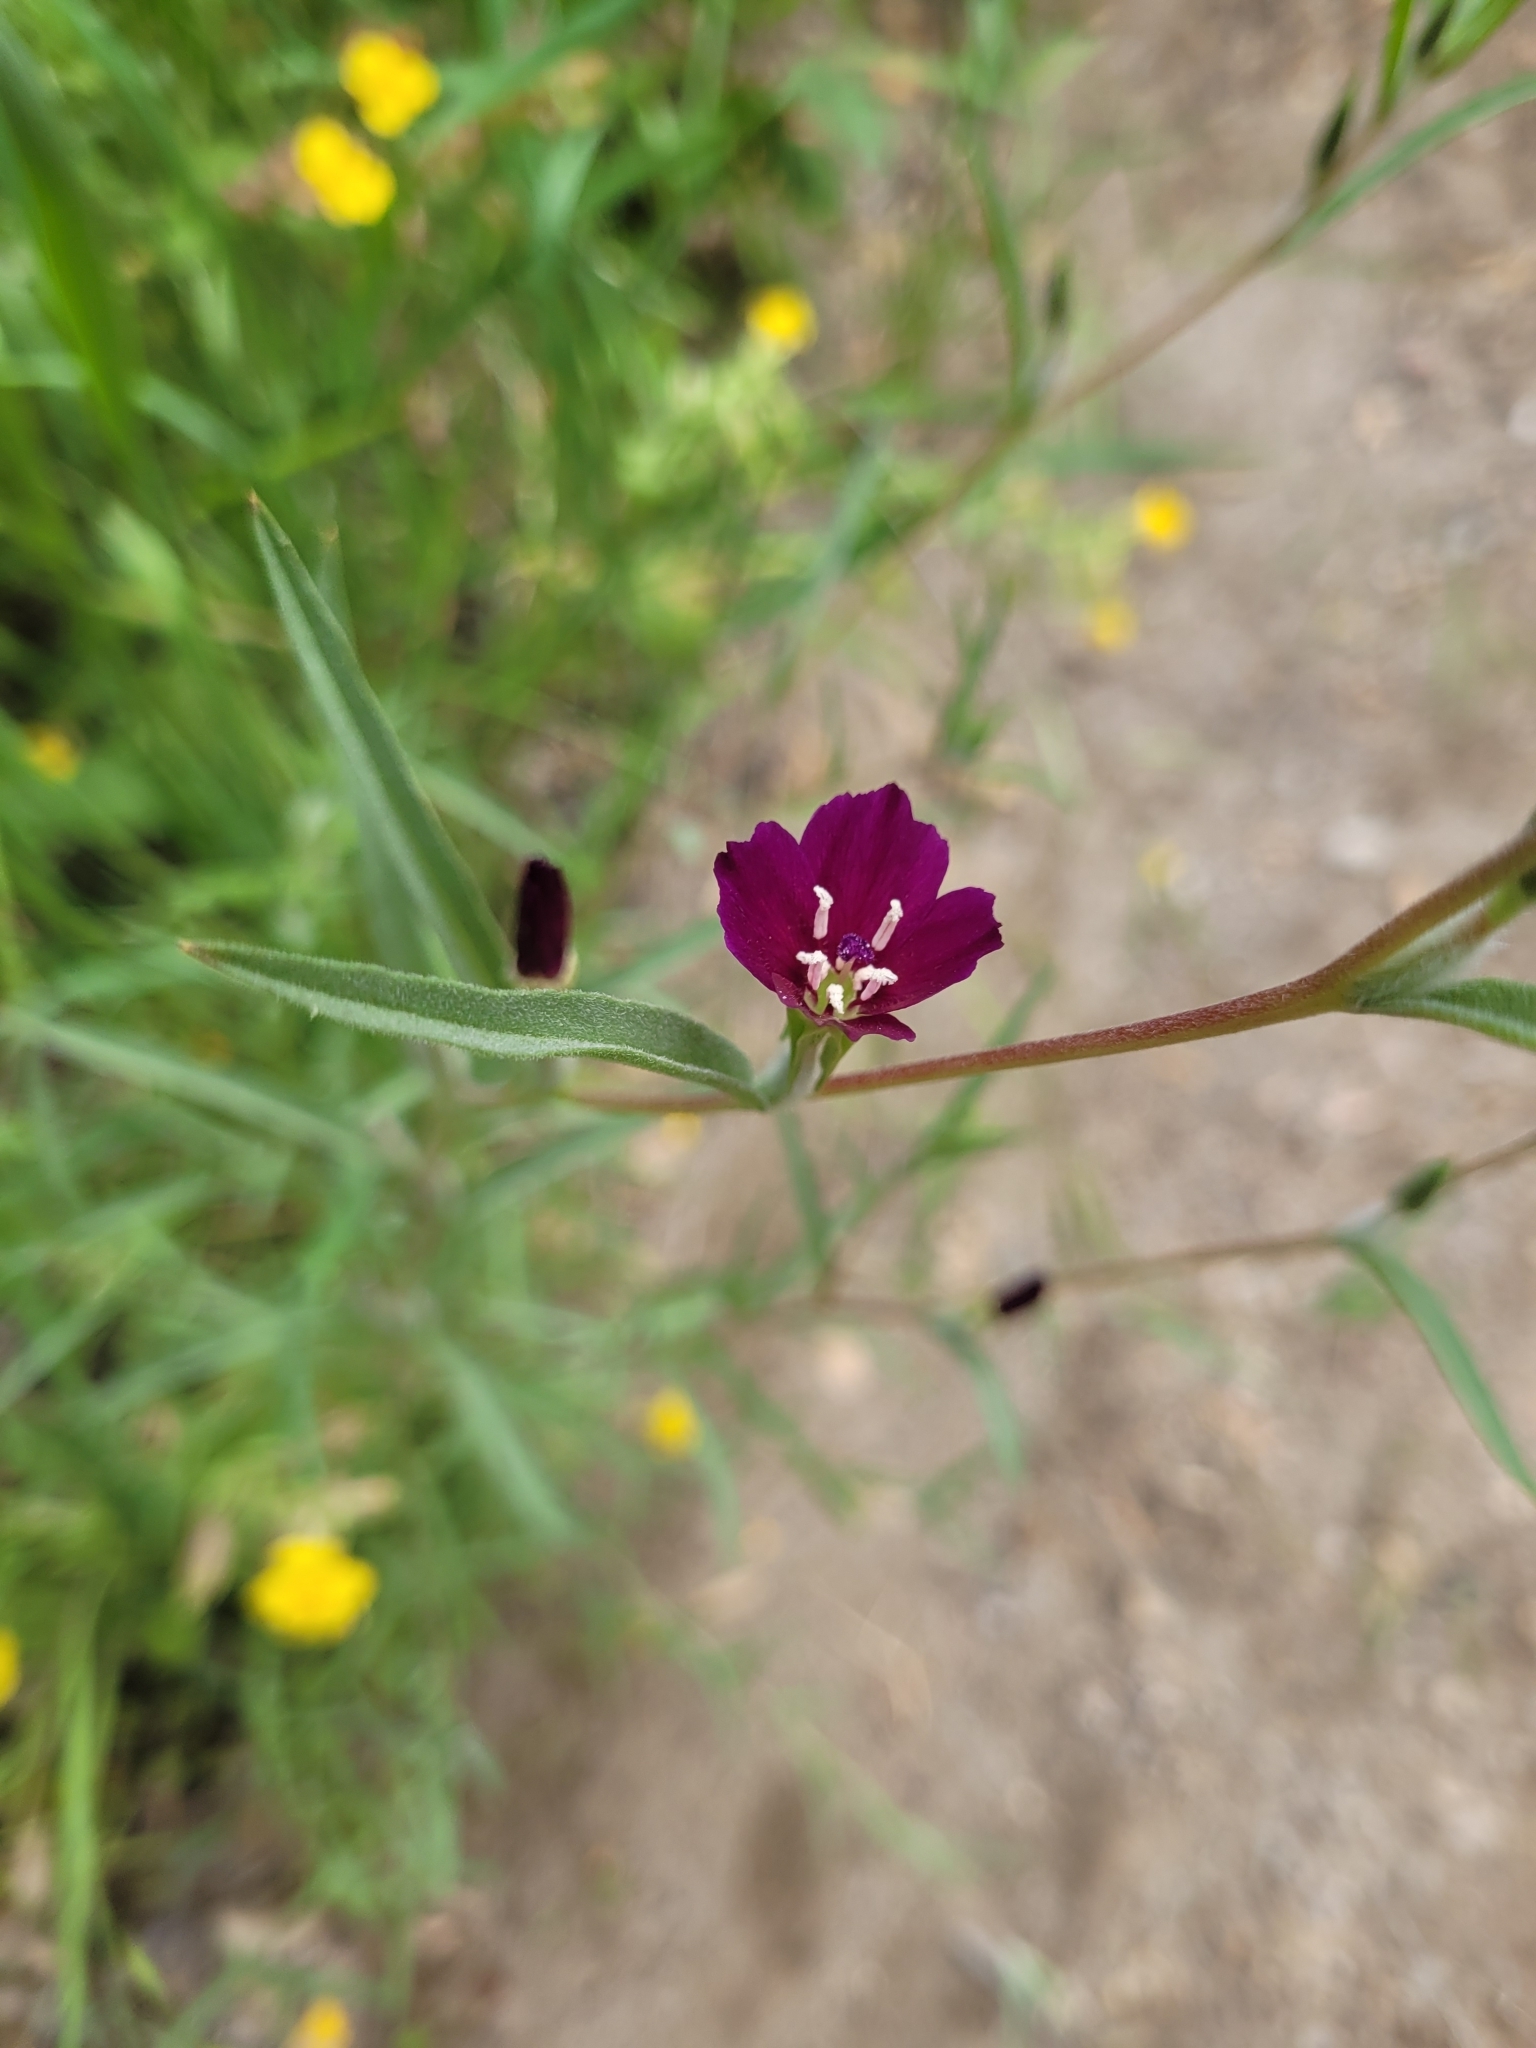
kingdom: Plantae
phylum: Tracheophyta
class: Magnoliopsida
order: Myrtales
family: Onagraceae
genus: Clarkia
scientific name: Clarkia purpurea
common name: Purple clarkia
